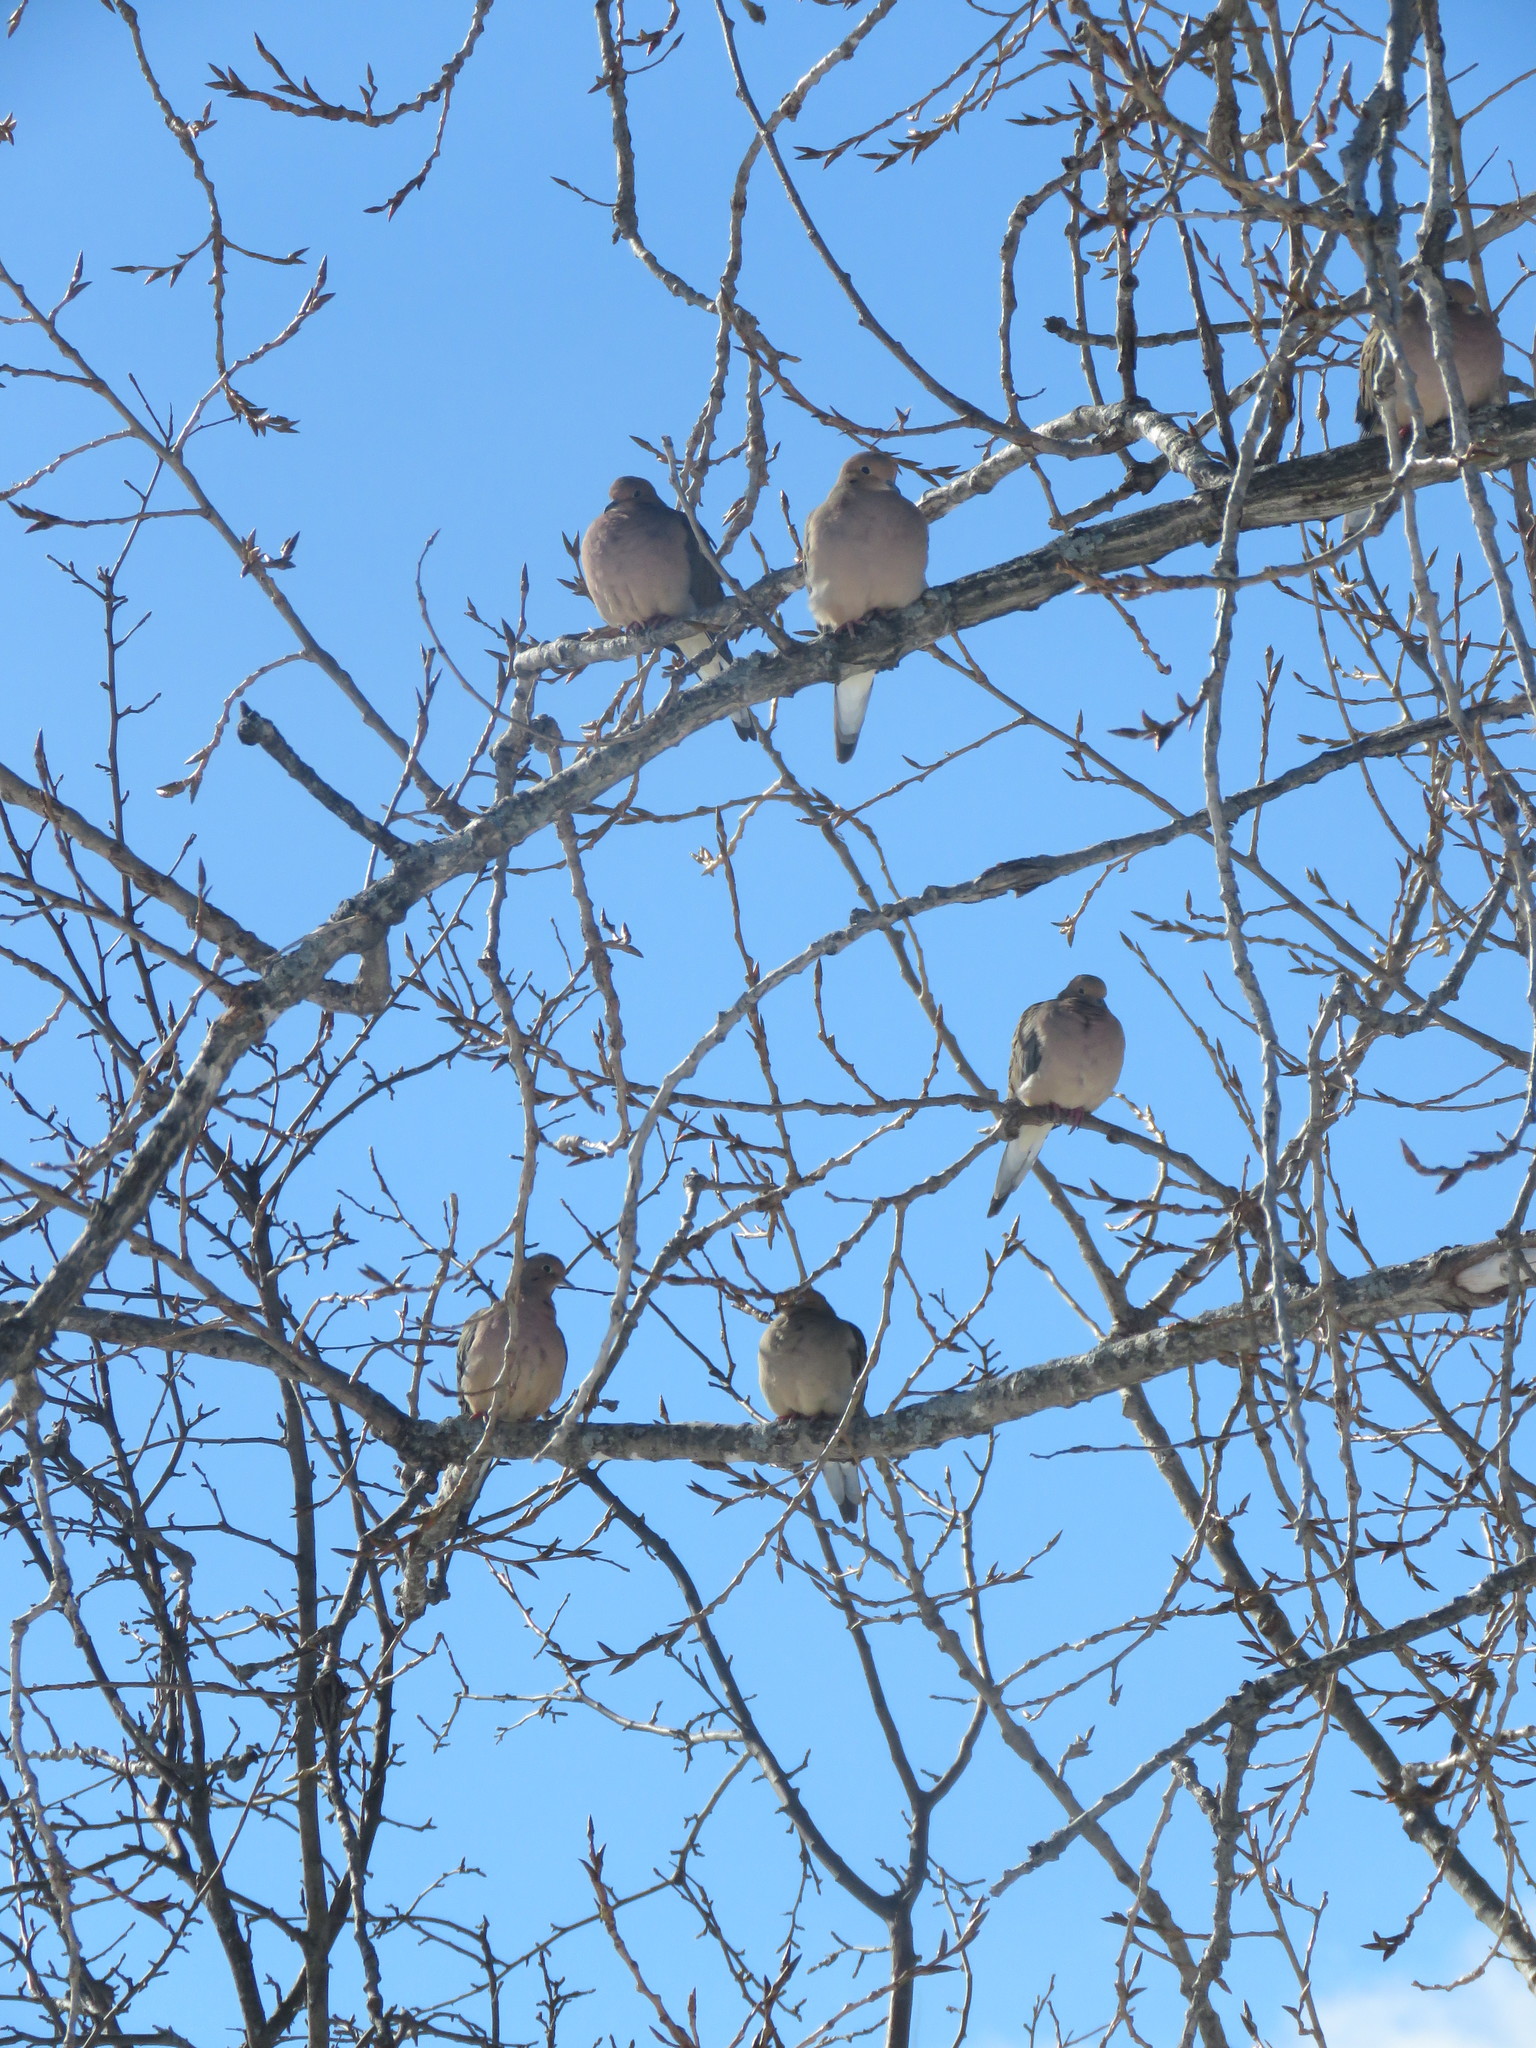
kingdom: Animalia
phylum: Chordata
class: Aves
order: Columbiformes
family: Columbidae
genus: Zenaida
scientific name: Zenaida macroura
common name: Mourning dove
